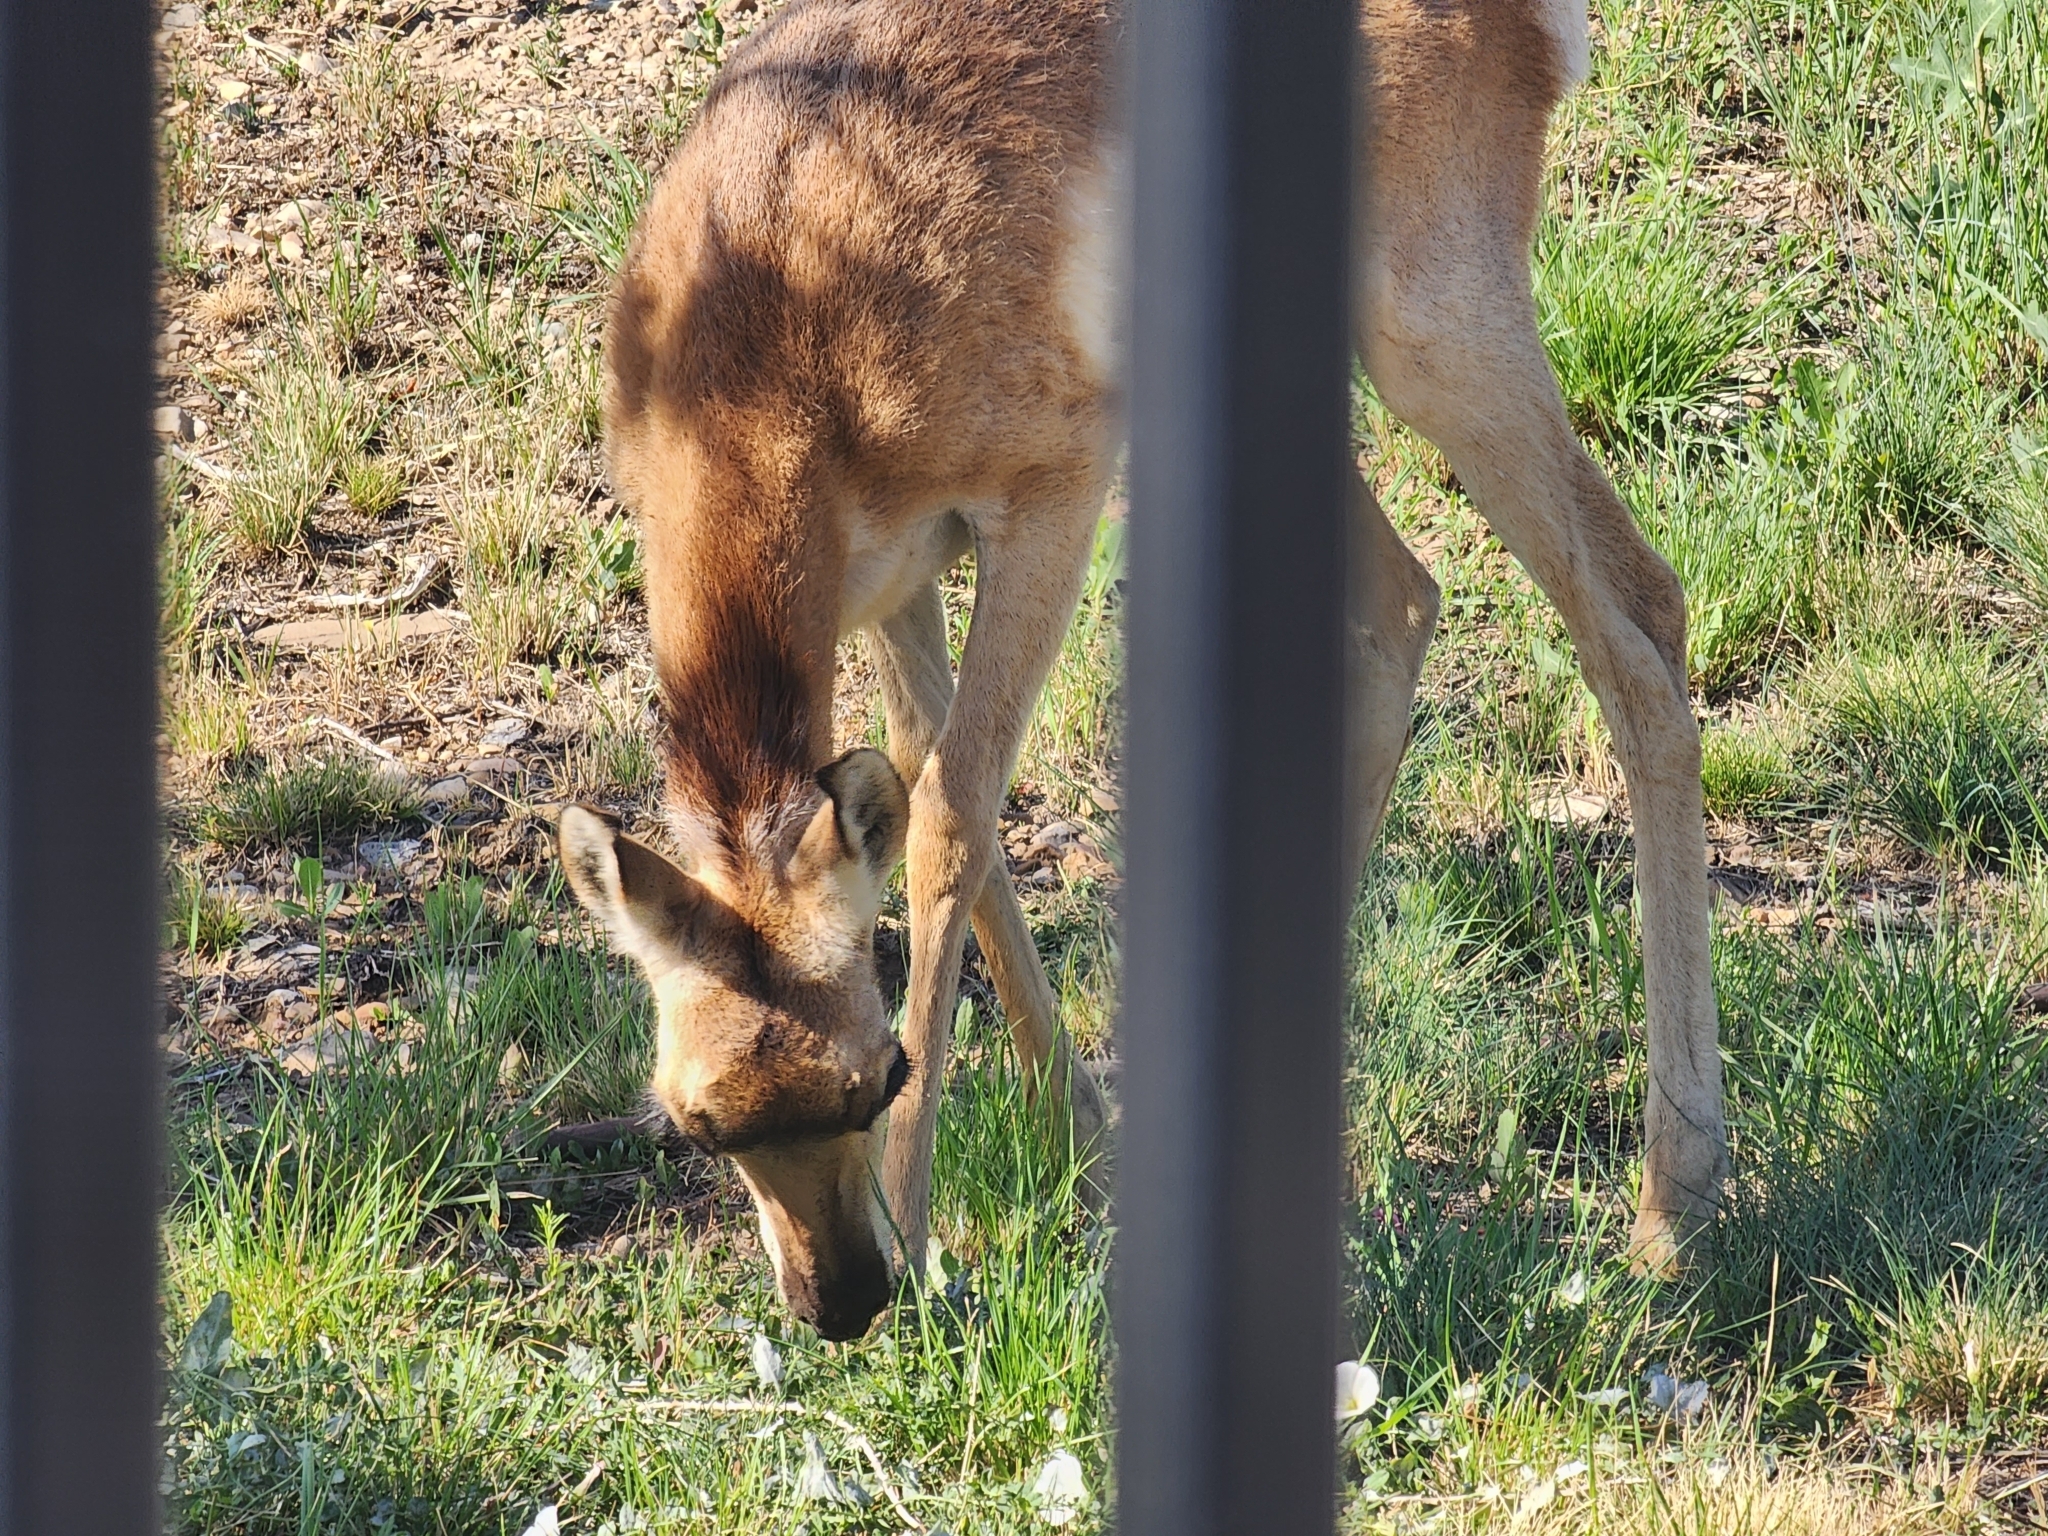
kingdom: Animalia
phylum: Chordata
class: Mammalia
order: Artiodactyla
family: Antilocapridae
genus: Antilocapra
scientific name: Antilocapra americana
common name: Pronghorn
